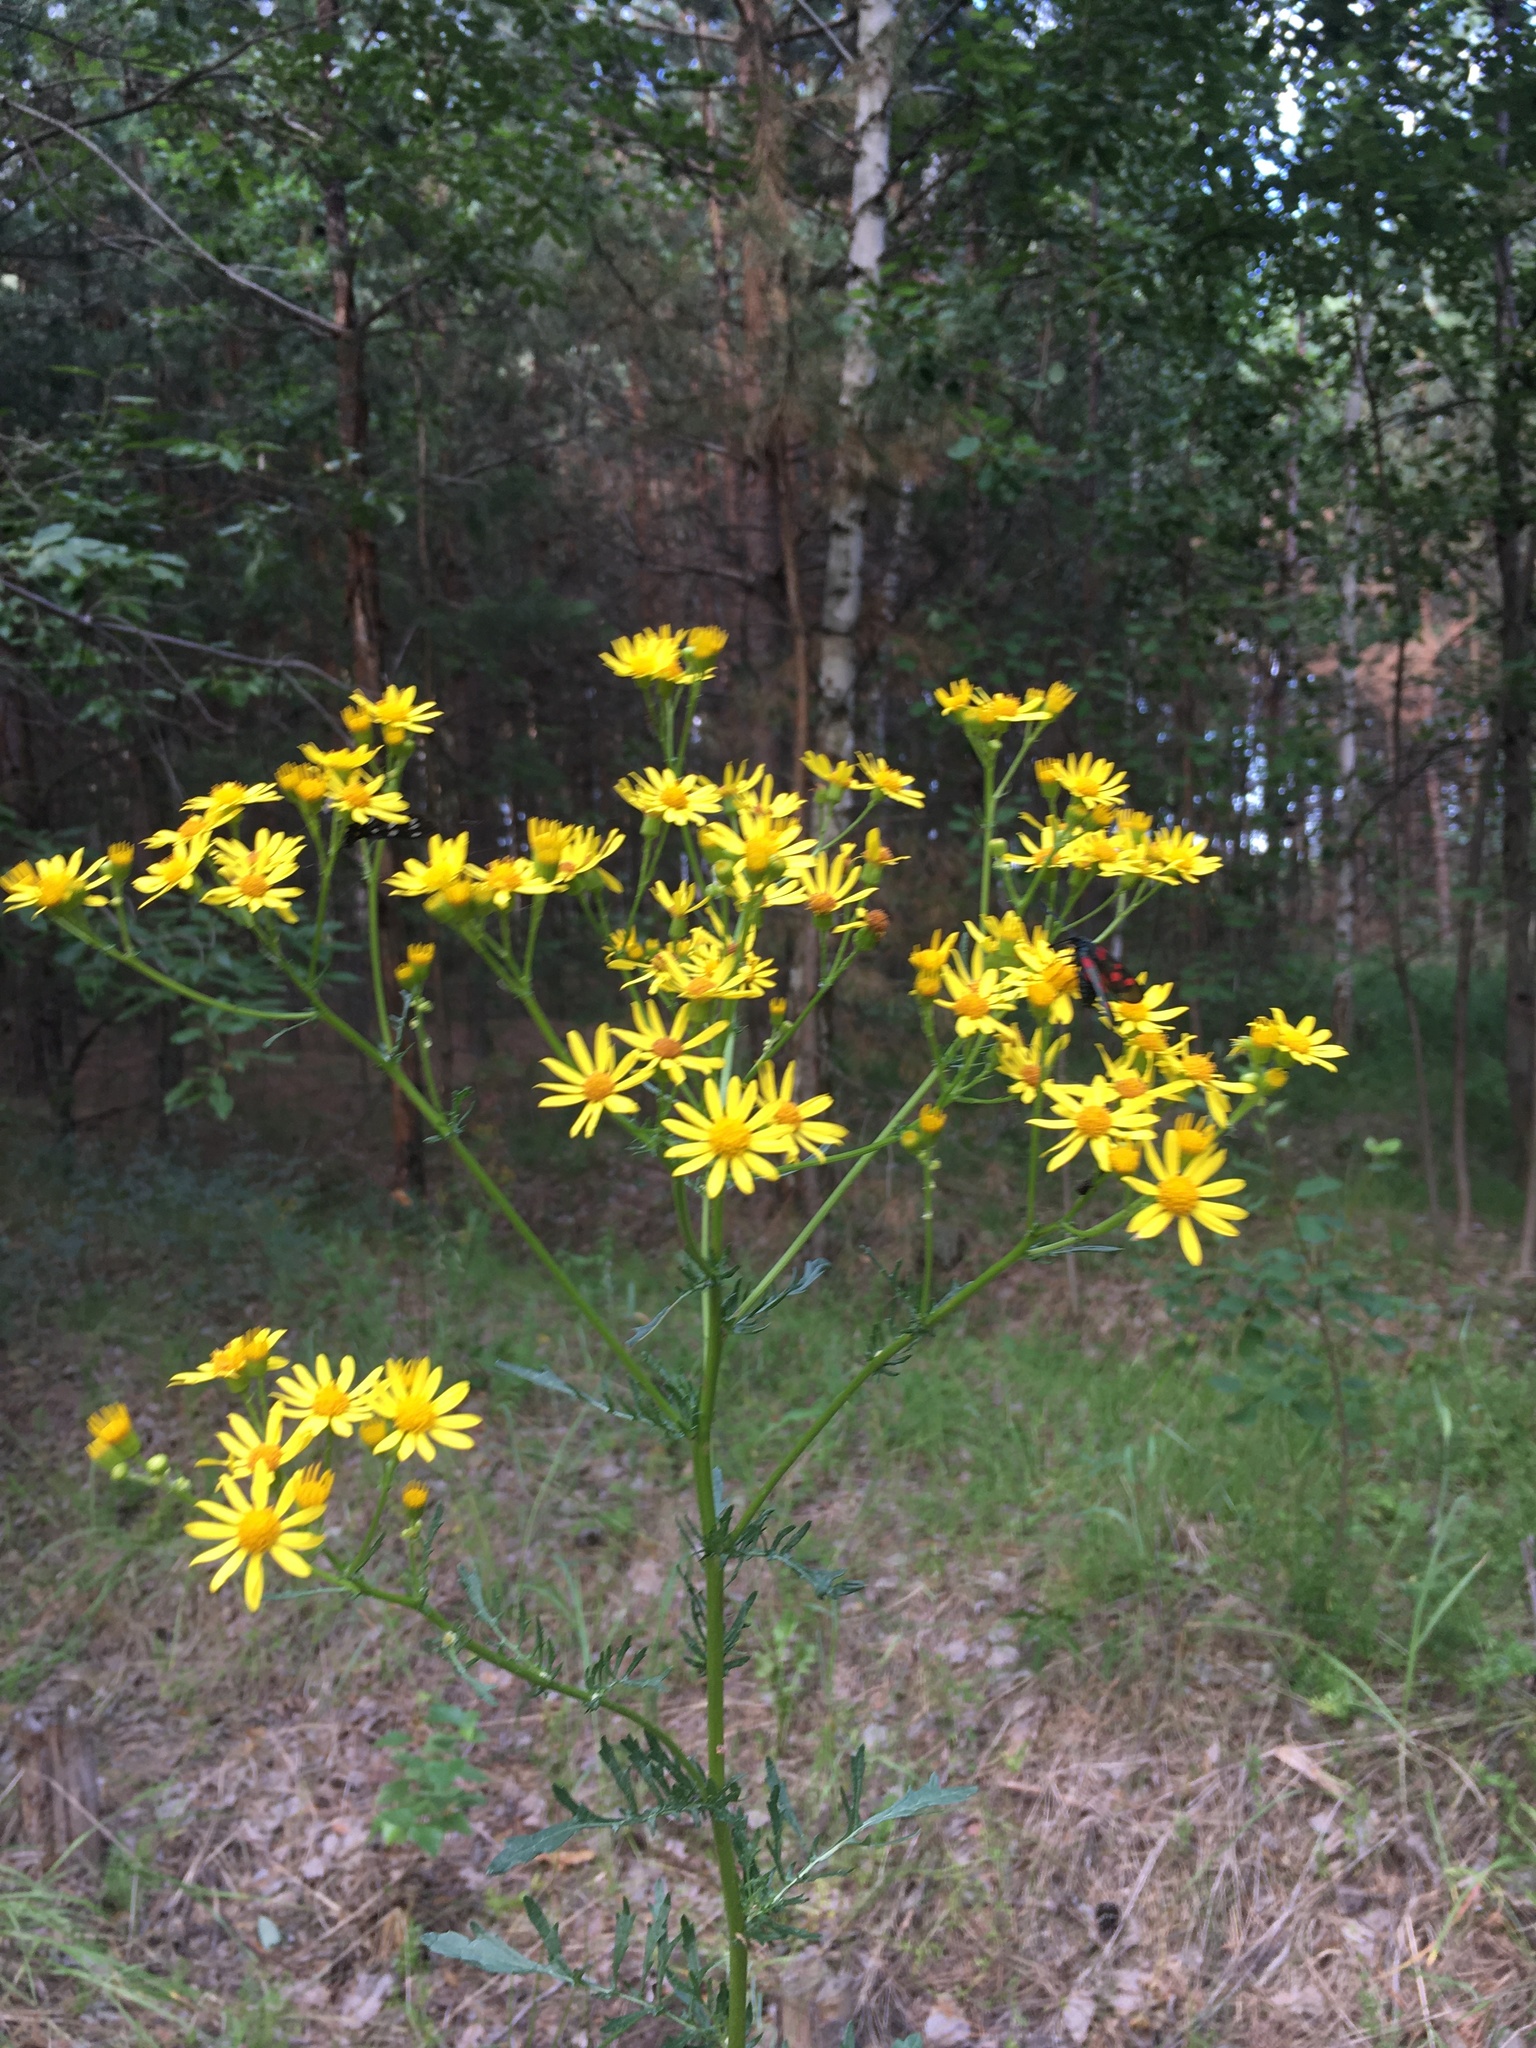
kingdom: Plantae
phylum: Tracheophyta
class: Magnoliopsida
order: Asterales
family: Asteraceae
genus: Jacobaea
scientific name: Jacobaea vulgaris
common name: Stinking willie
